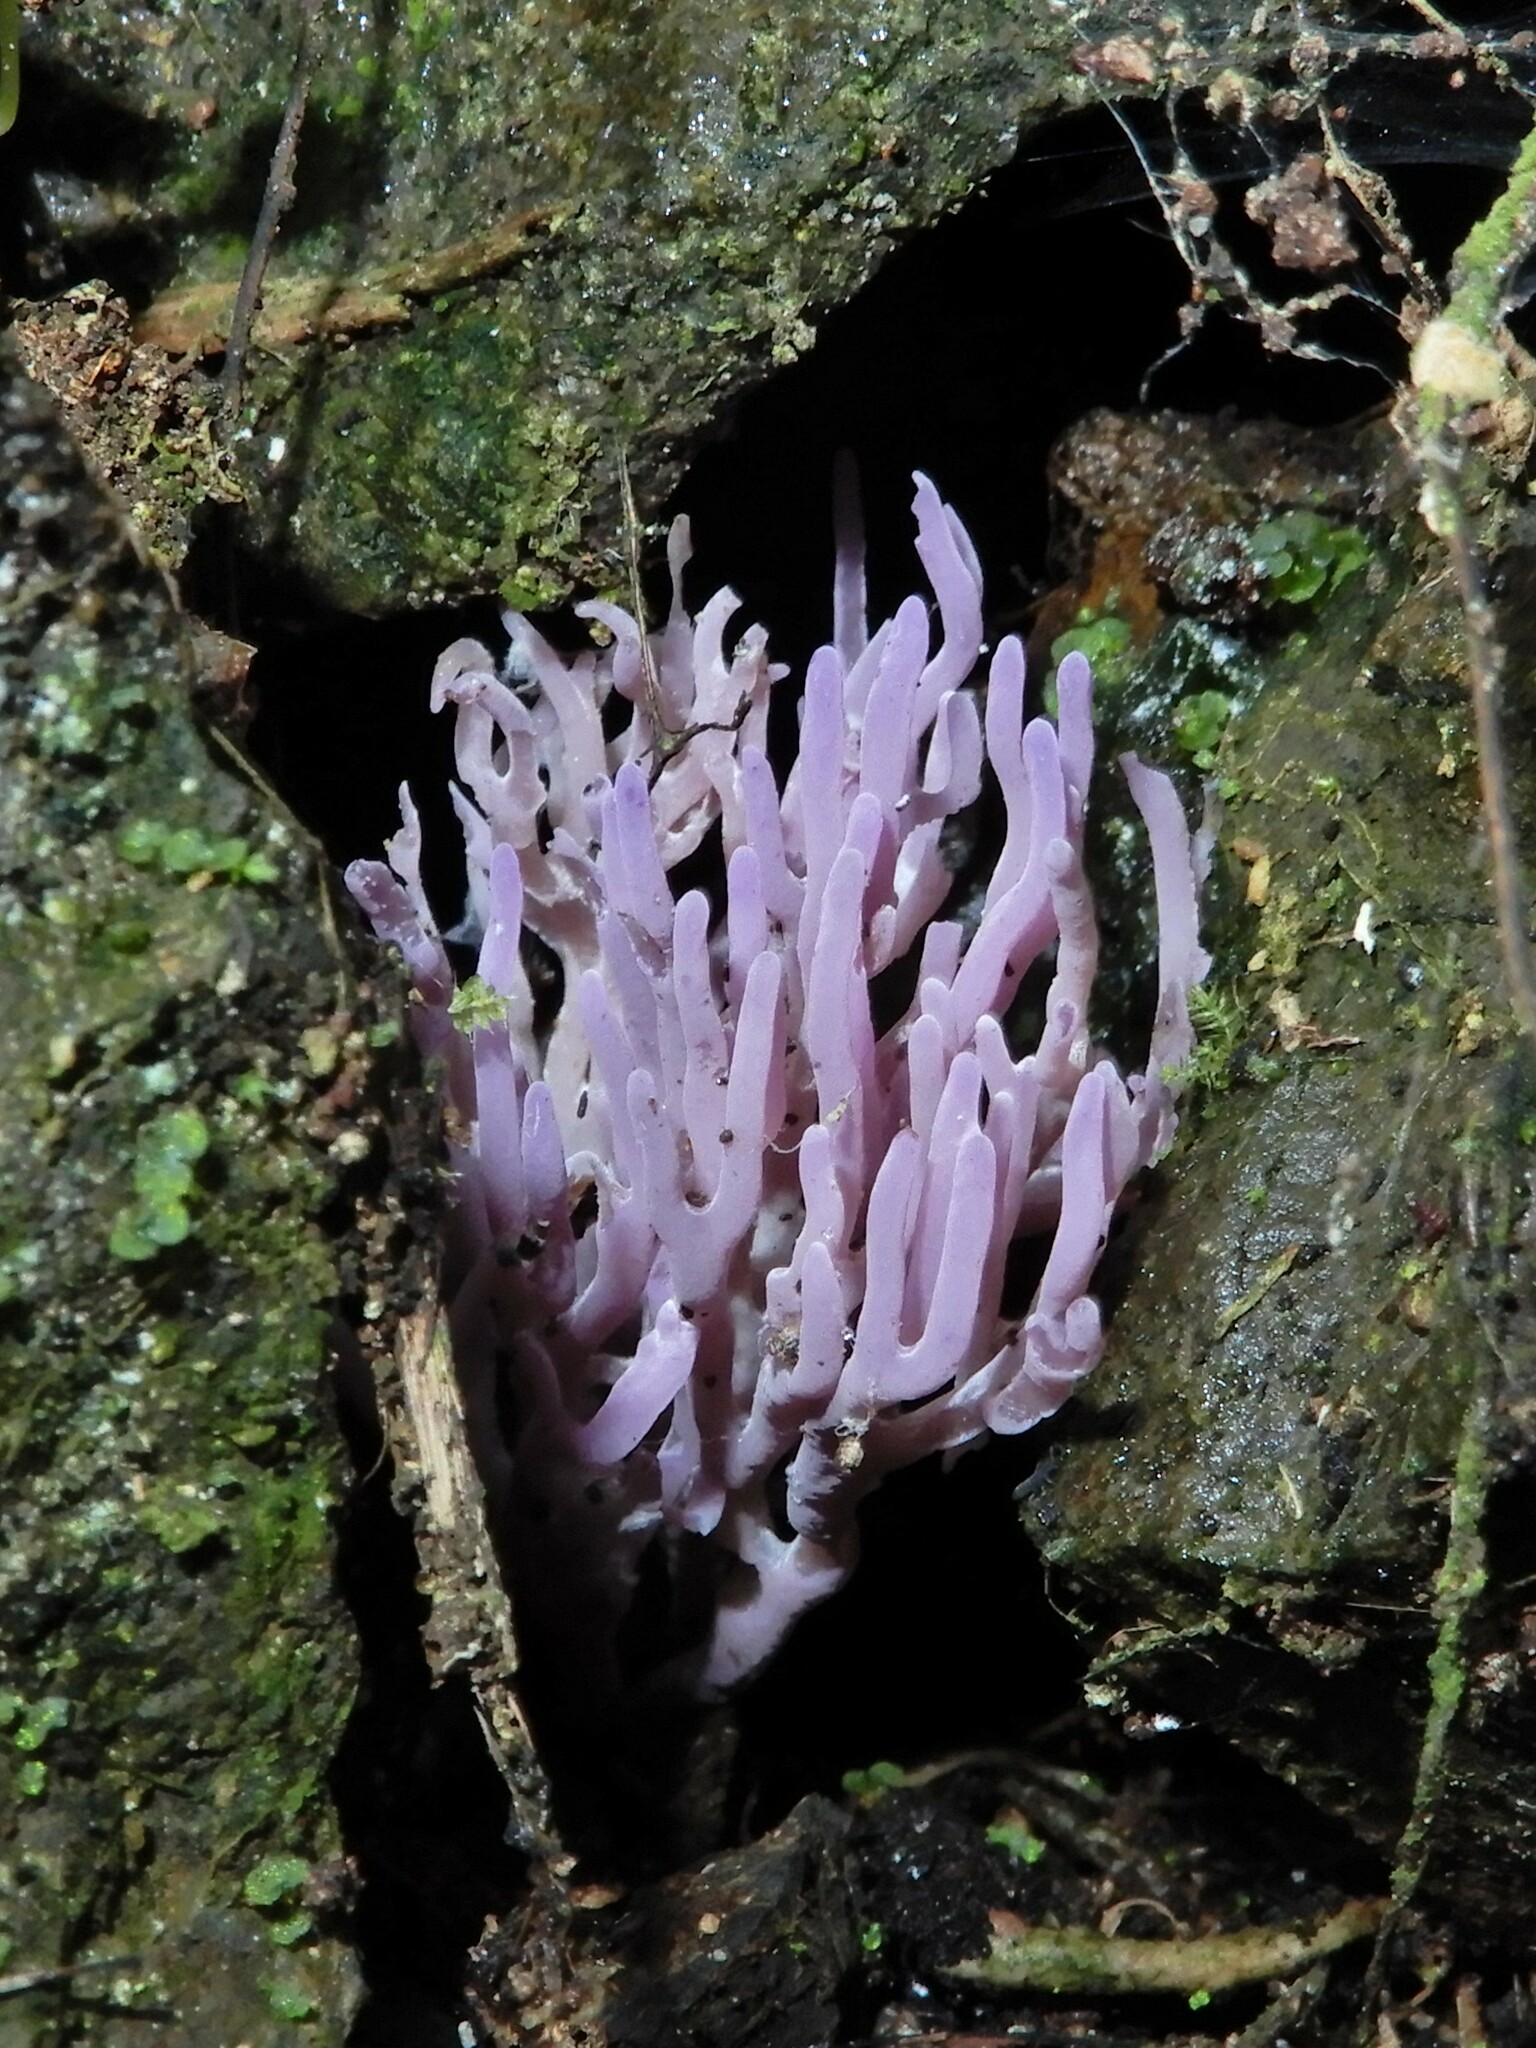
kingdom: Fungi
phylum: Basidiomycota
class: Agaricomycetes
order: Agaricales
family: Clavariaceae
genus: Ramariopsis
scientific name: Ramariopsis pulchella
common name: Lilac coral
